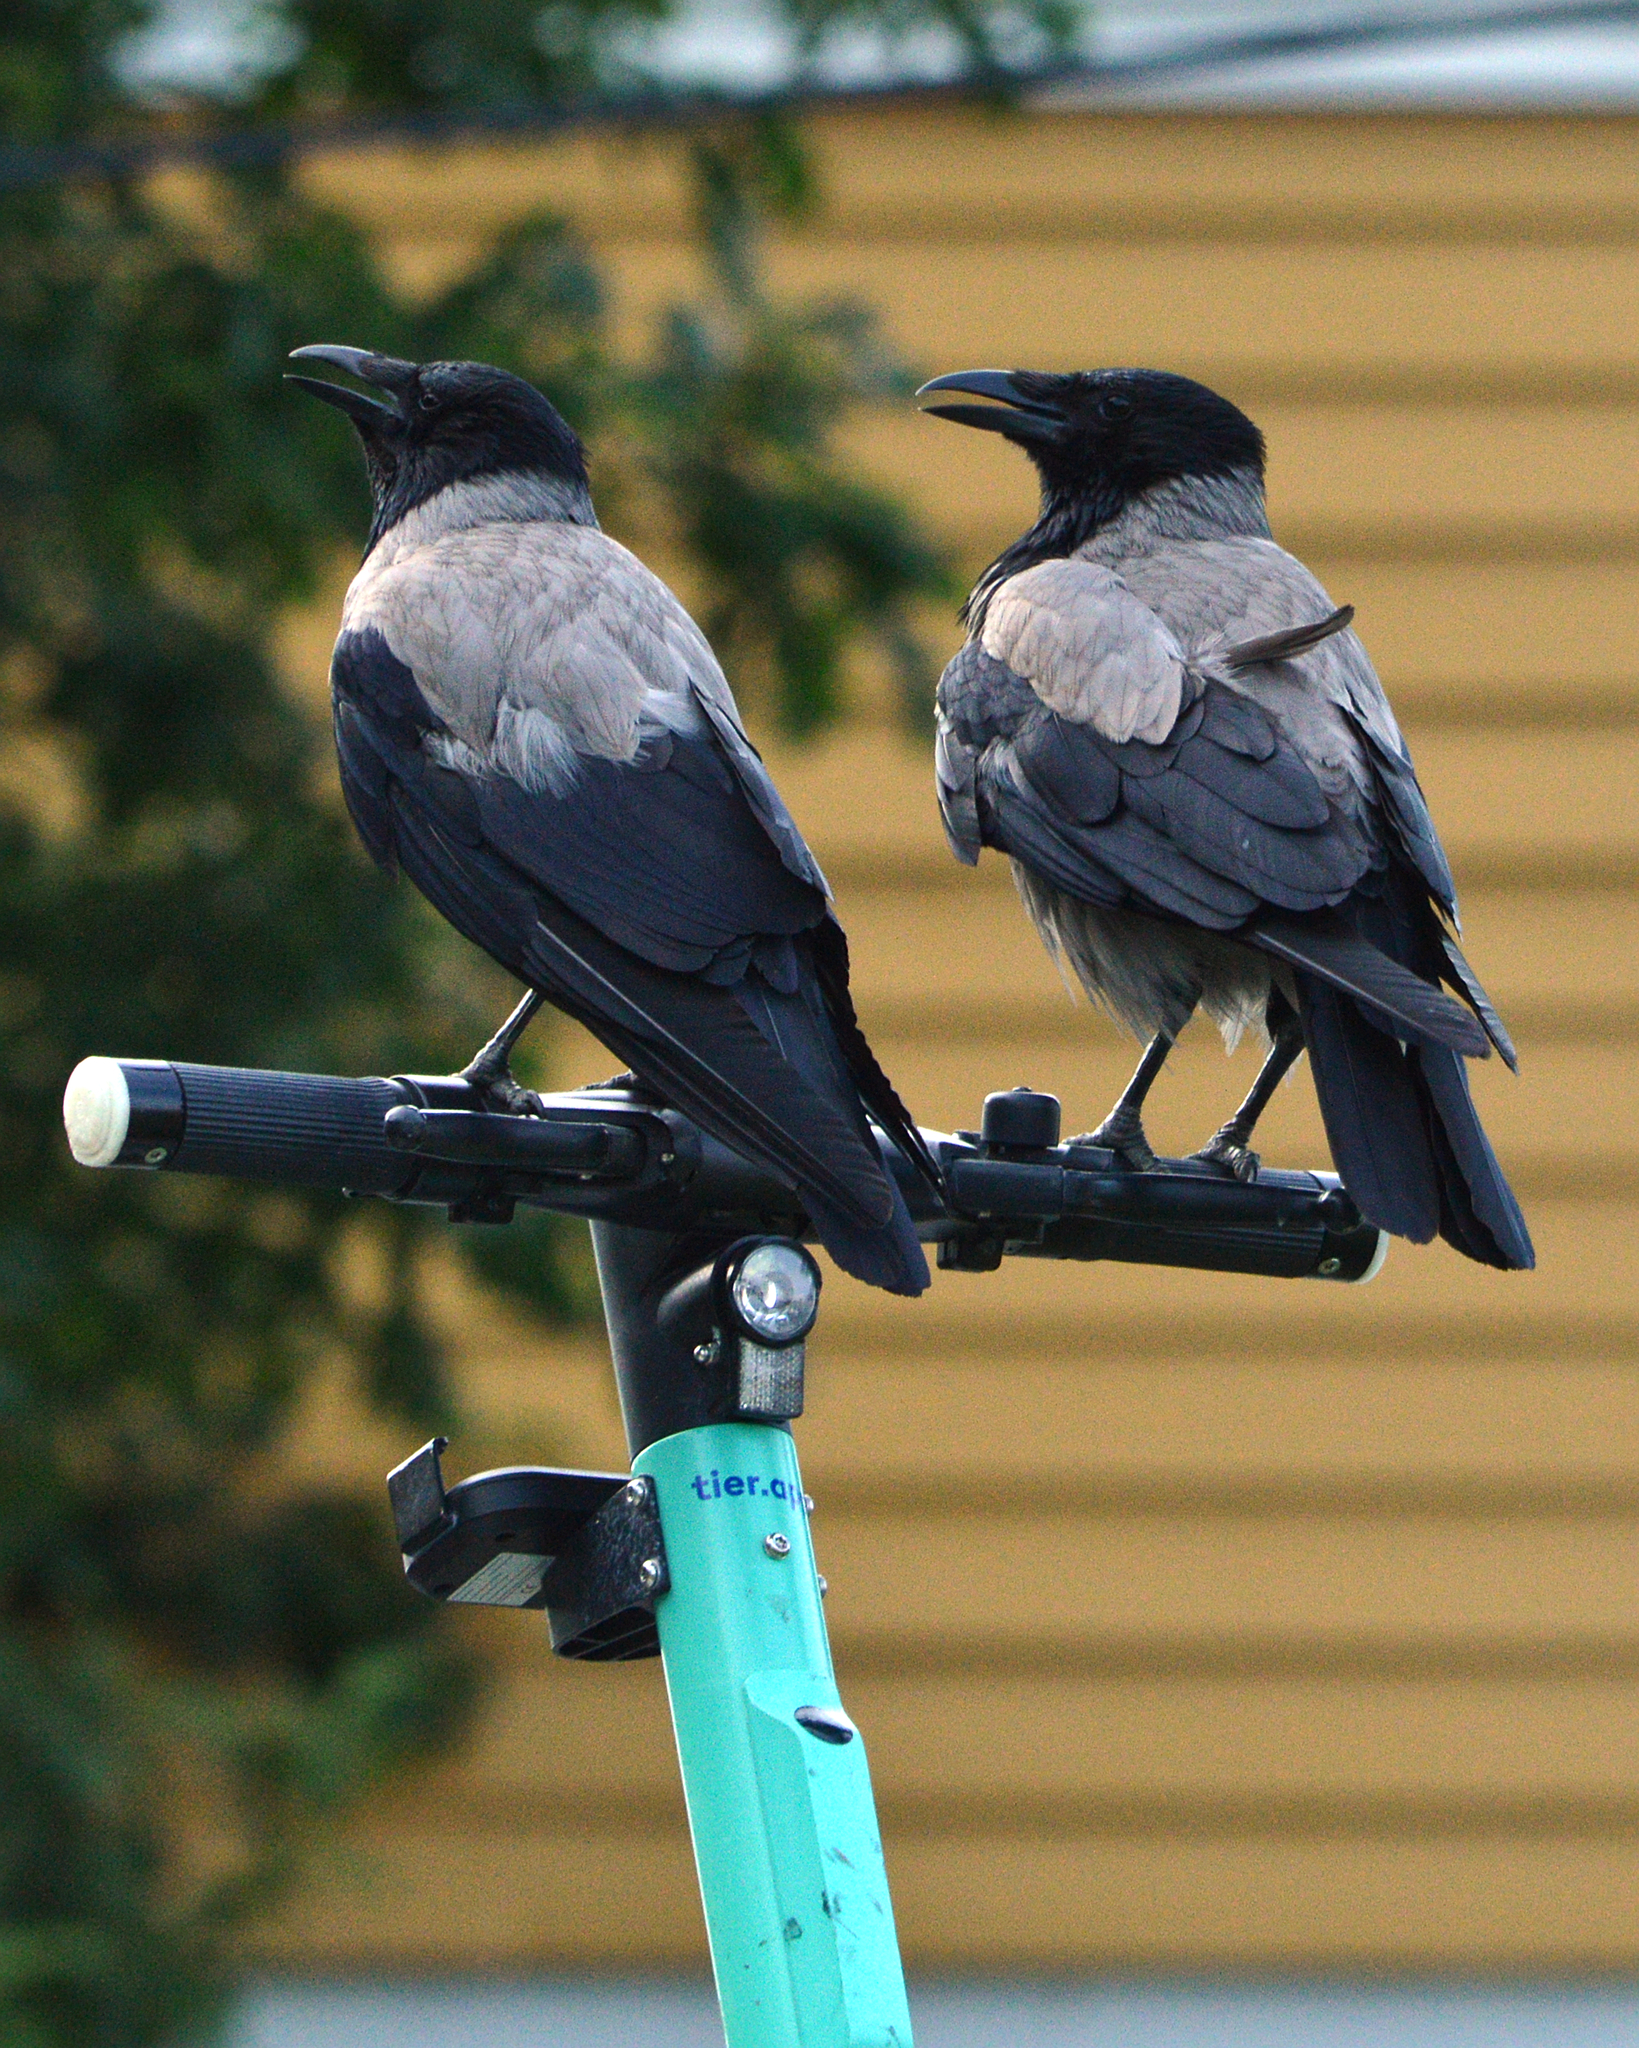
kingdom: Animalia
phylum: Chordata
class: Aves
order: Passeriformes
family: Corvidae
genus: Corvus
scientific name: Corvus cornix
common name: Hooded crow
